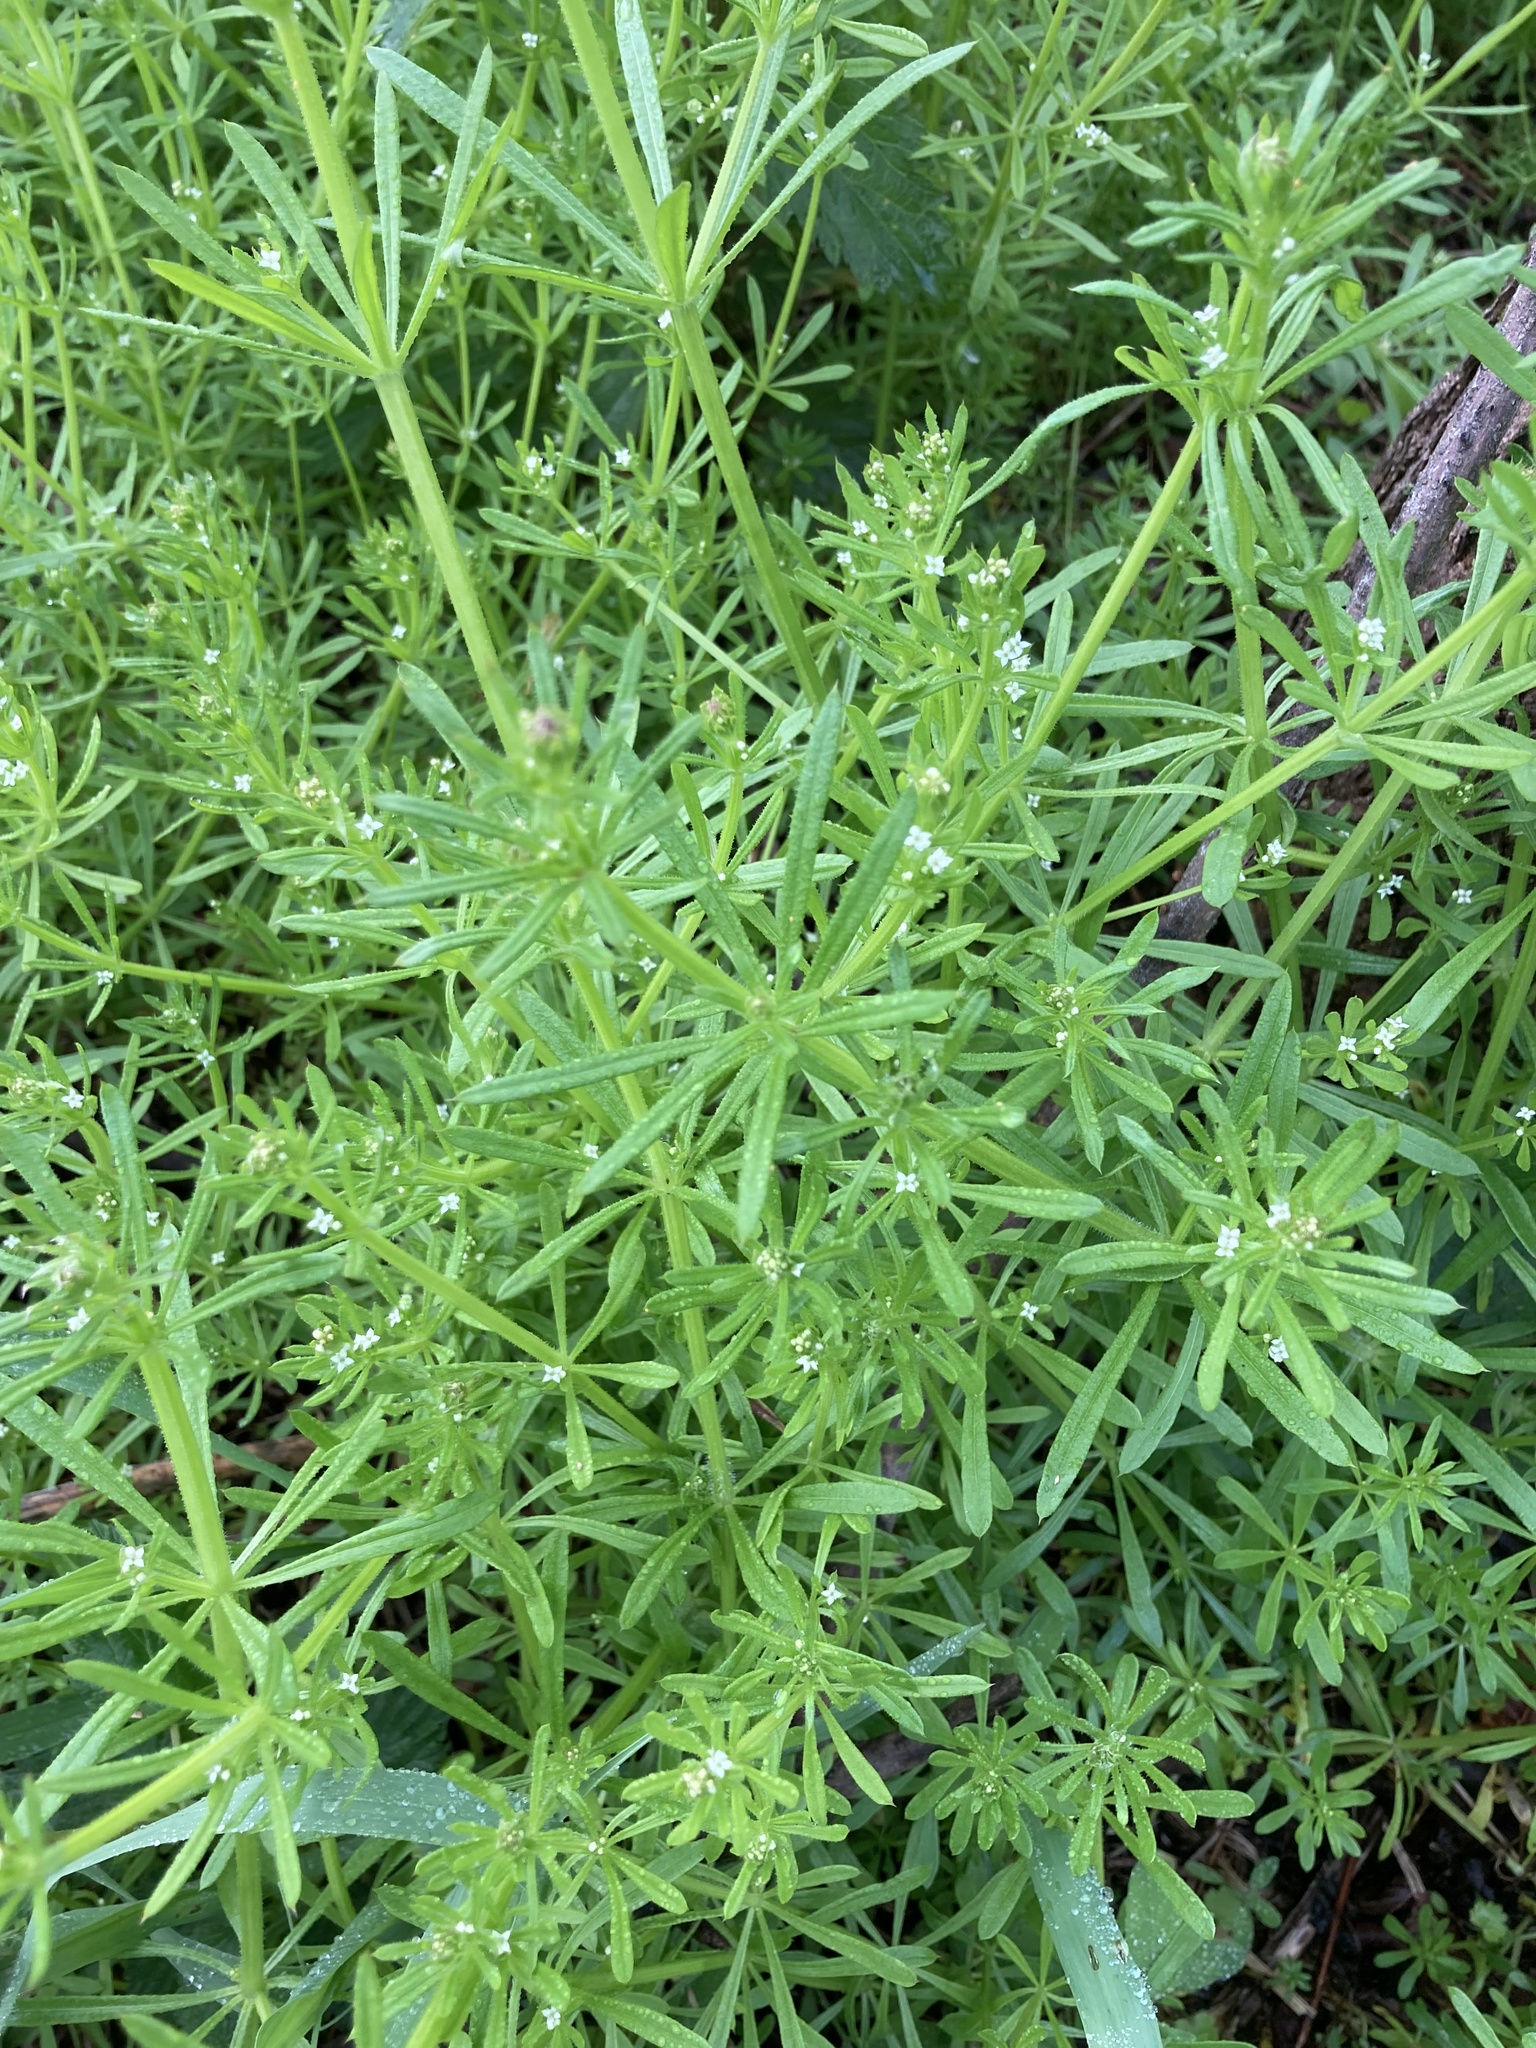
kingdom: Plantae
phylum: Tracheophyta
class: Magnoliopsida
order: Gentianales
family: Rubiaceae
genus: Galium
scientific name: Galium aparine
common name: Cleavers
